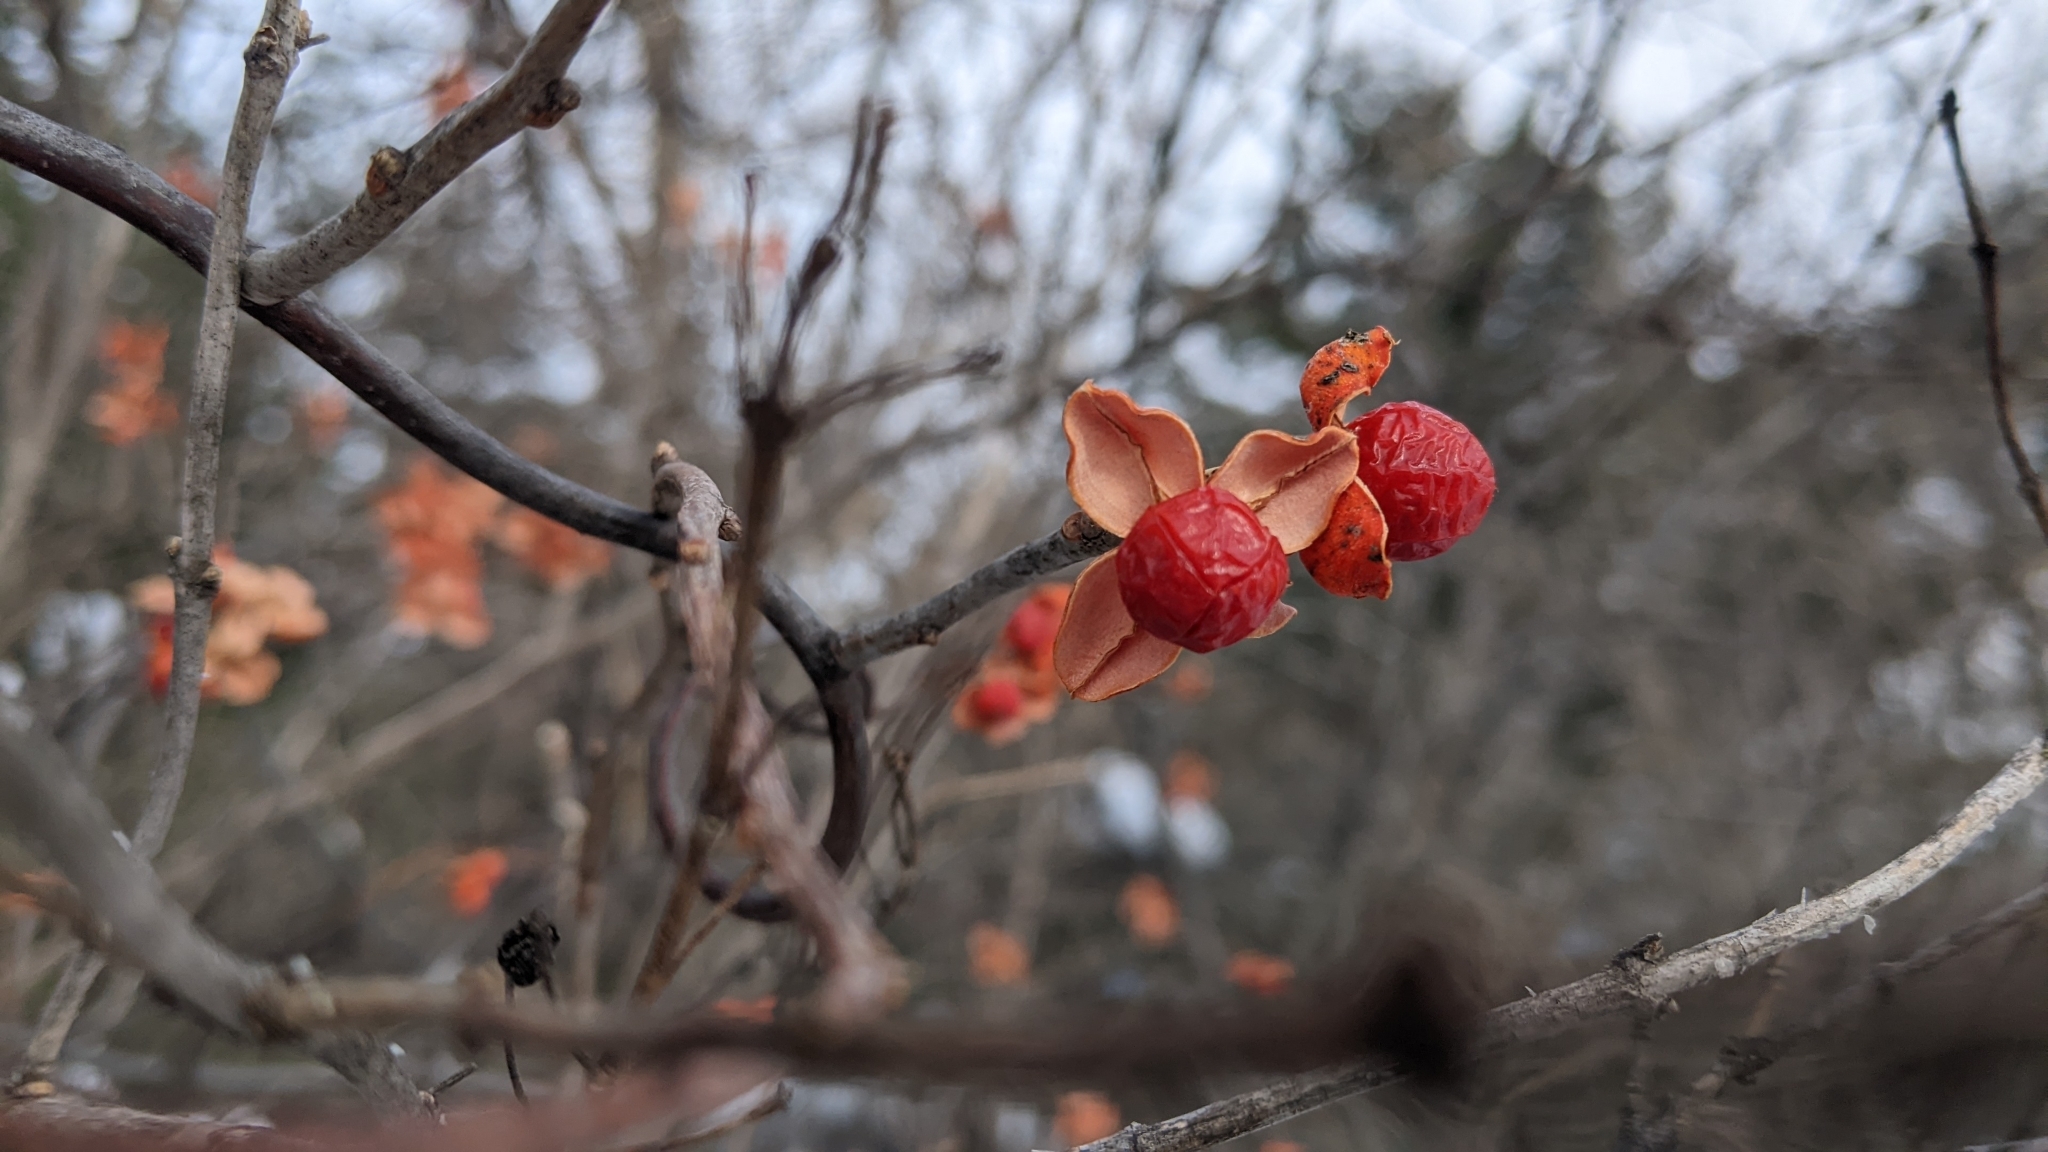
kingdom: Plantae
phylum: Tracheophyta
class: Magnoliopsida
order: Celastrales
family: Celastraceae
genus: Celastrus
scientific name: Celastrus scandens
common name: American bittersweet
